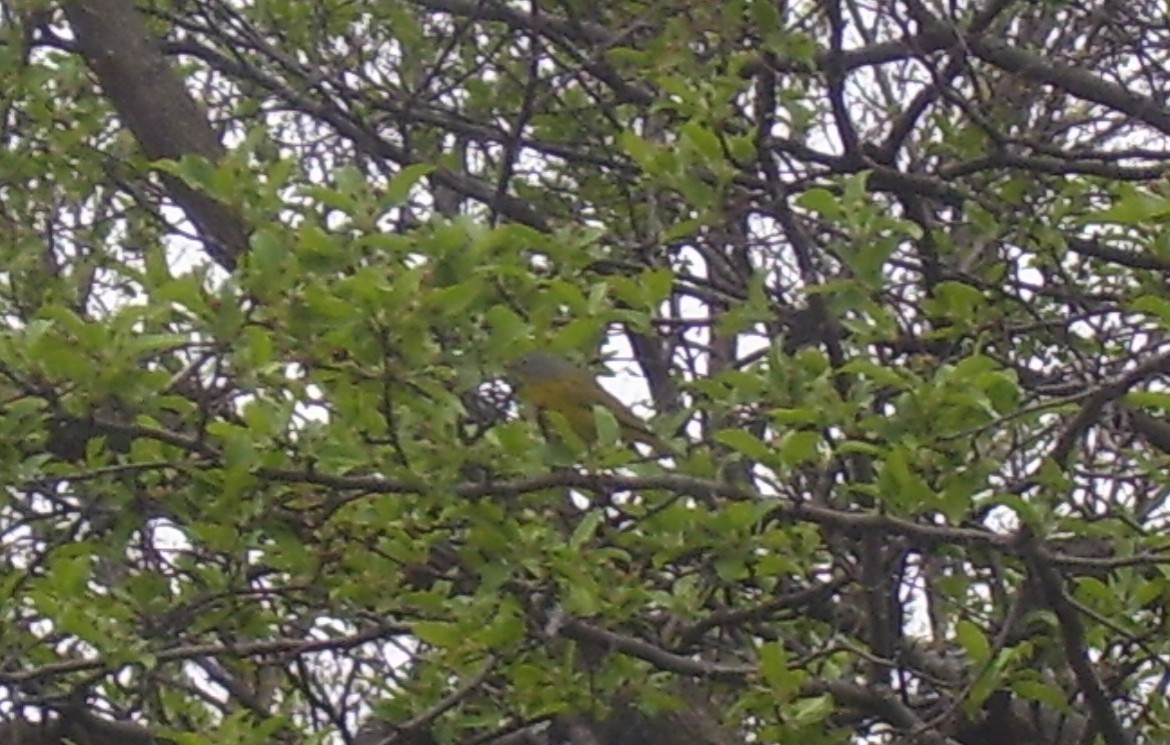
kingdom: Animalia
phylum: Chordata
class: Aves
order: Passeriformes
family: Parulidae
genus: Leiothlypis
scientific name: Leiothlypis ruficapilla
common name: Nashville warbler
